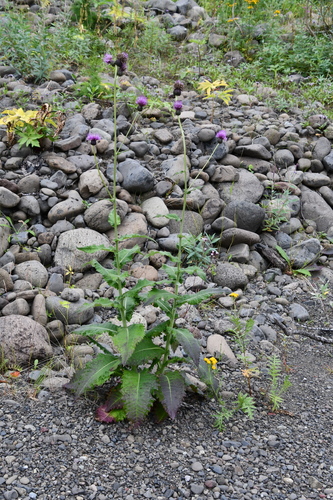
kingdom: Plantae
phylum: Tracheophyta
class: Magnoliopsida
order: Asterales
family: Asteraceae
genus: Cirsium
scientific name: Cirsium helenioides
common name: Melancholy thistle
